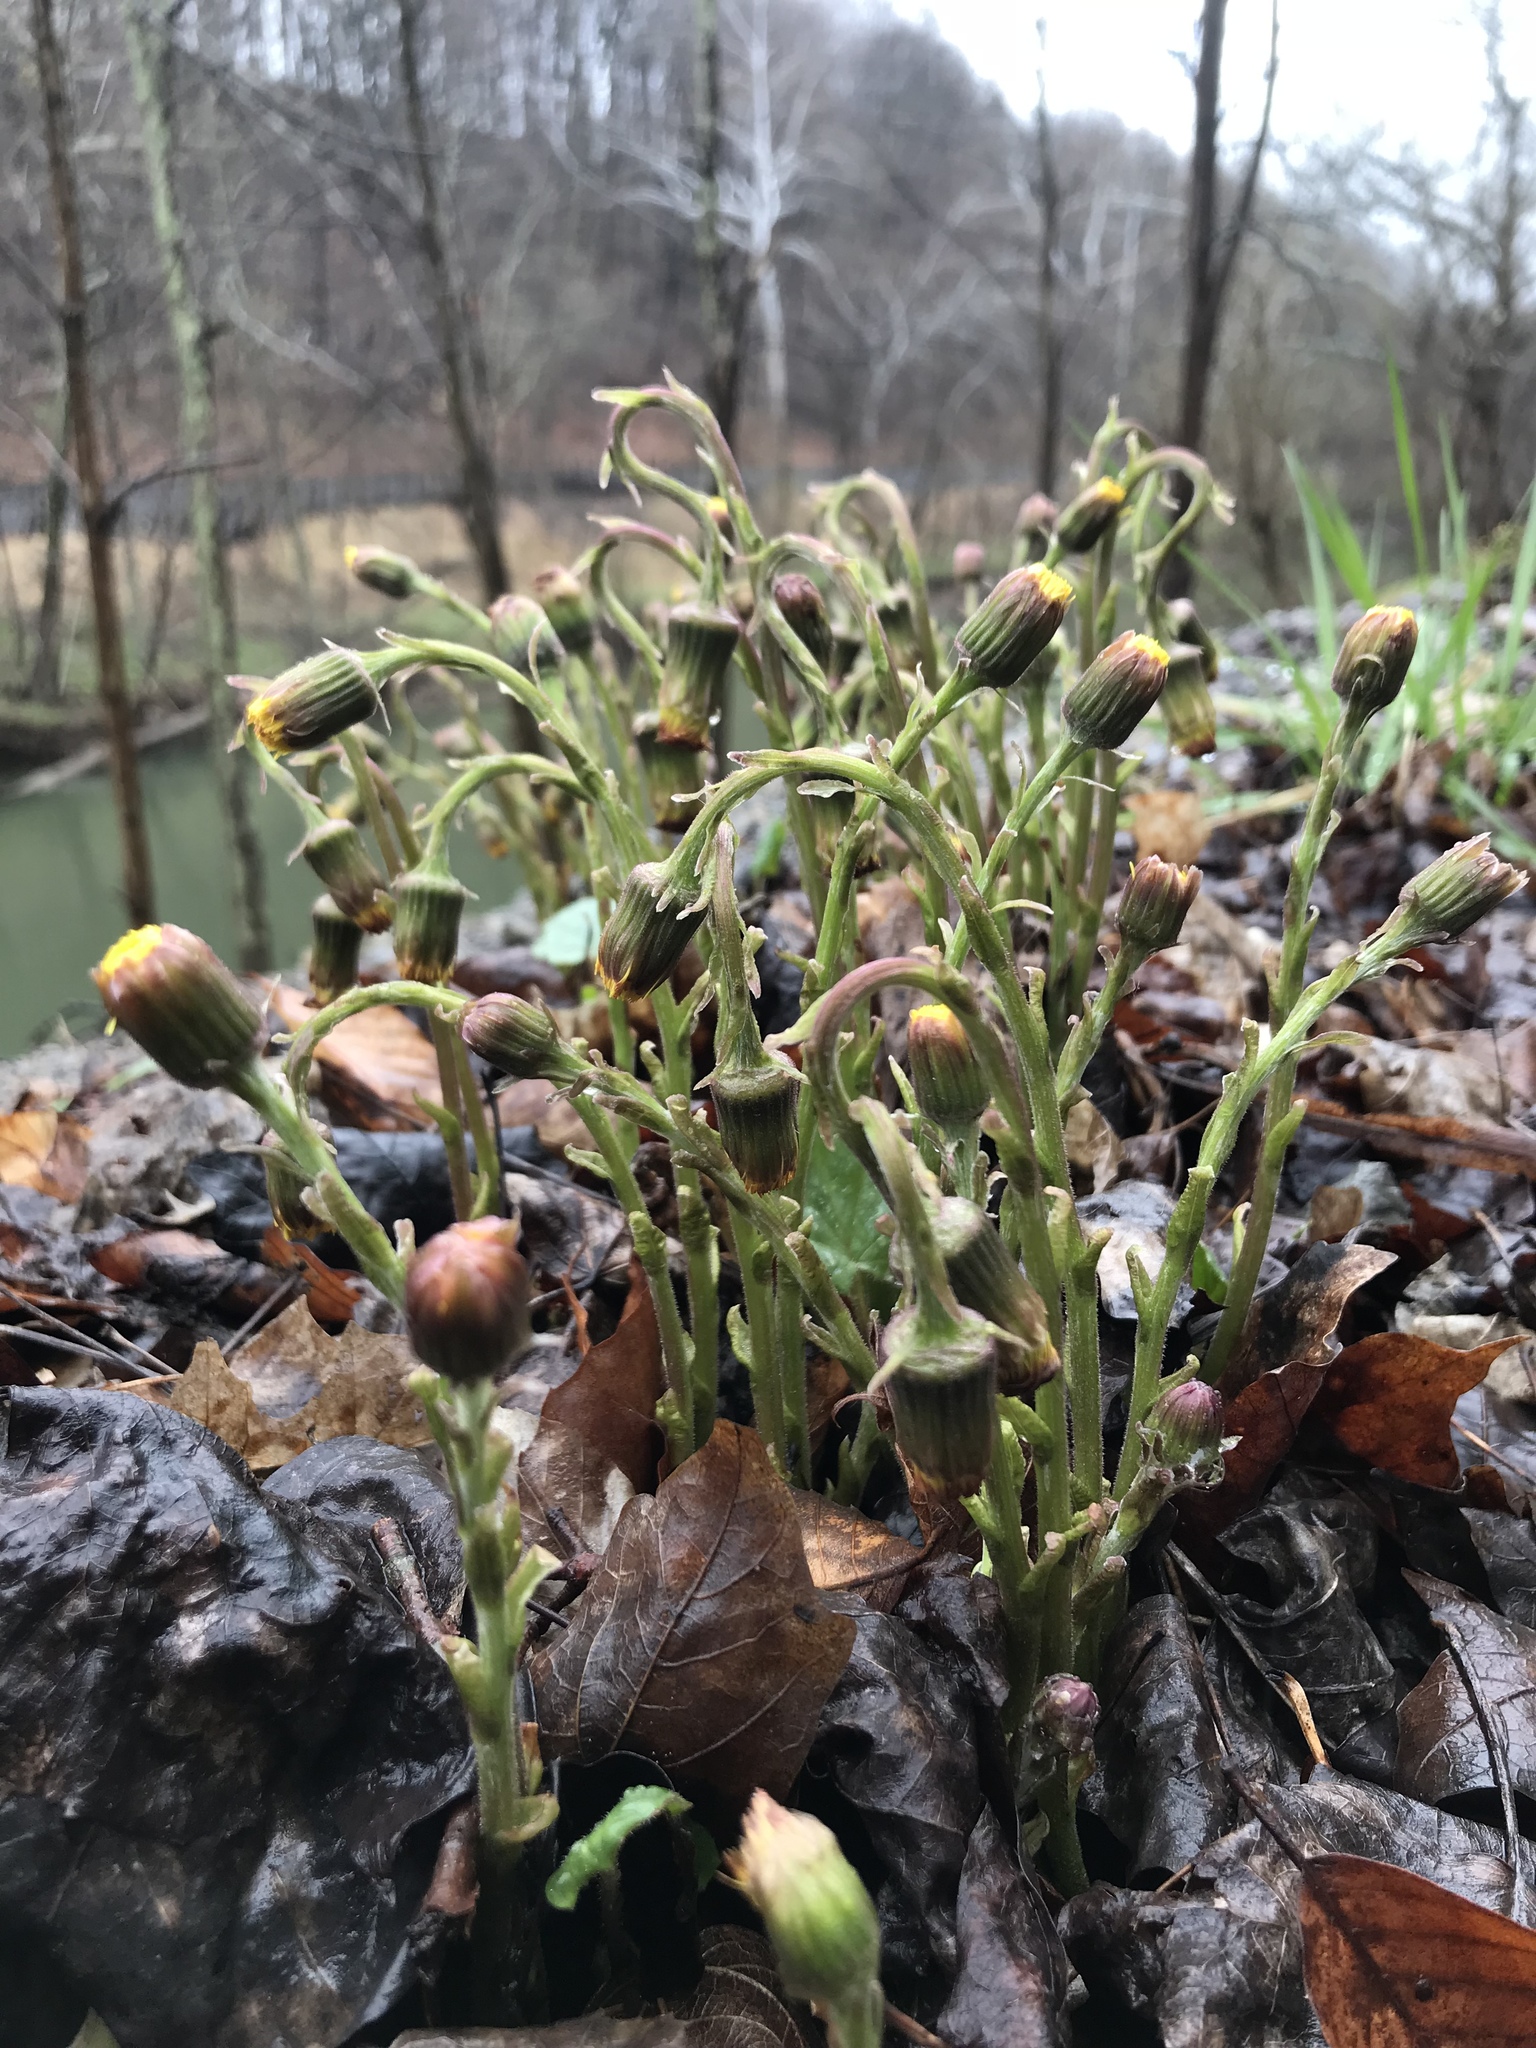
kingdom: Plantae
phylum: Tracheophyta
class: Magnoliopsida
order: Asterales
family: Asteraceae
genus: Tussilago
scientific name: Tussilago farfara
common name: Coltsfoot
